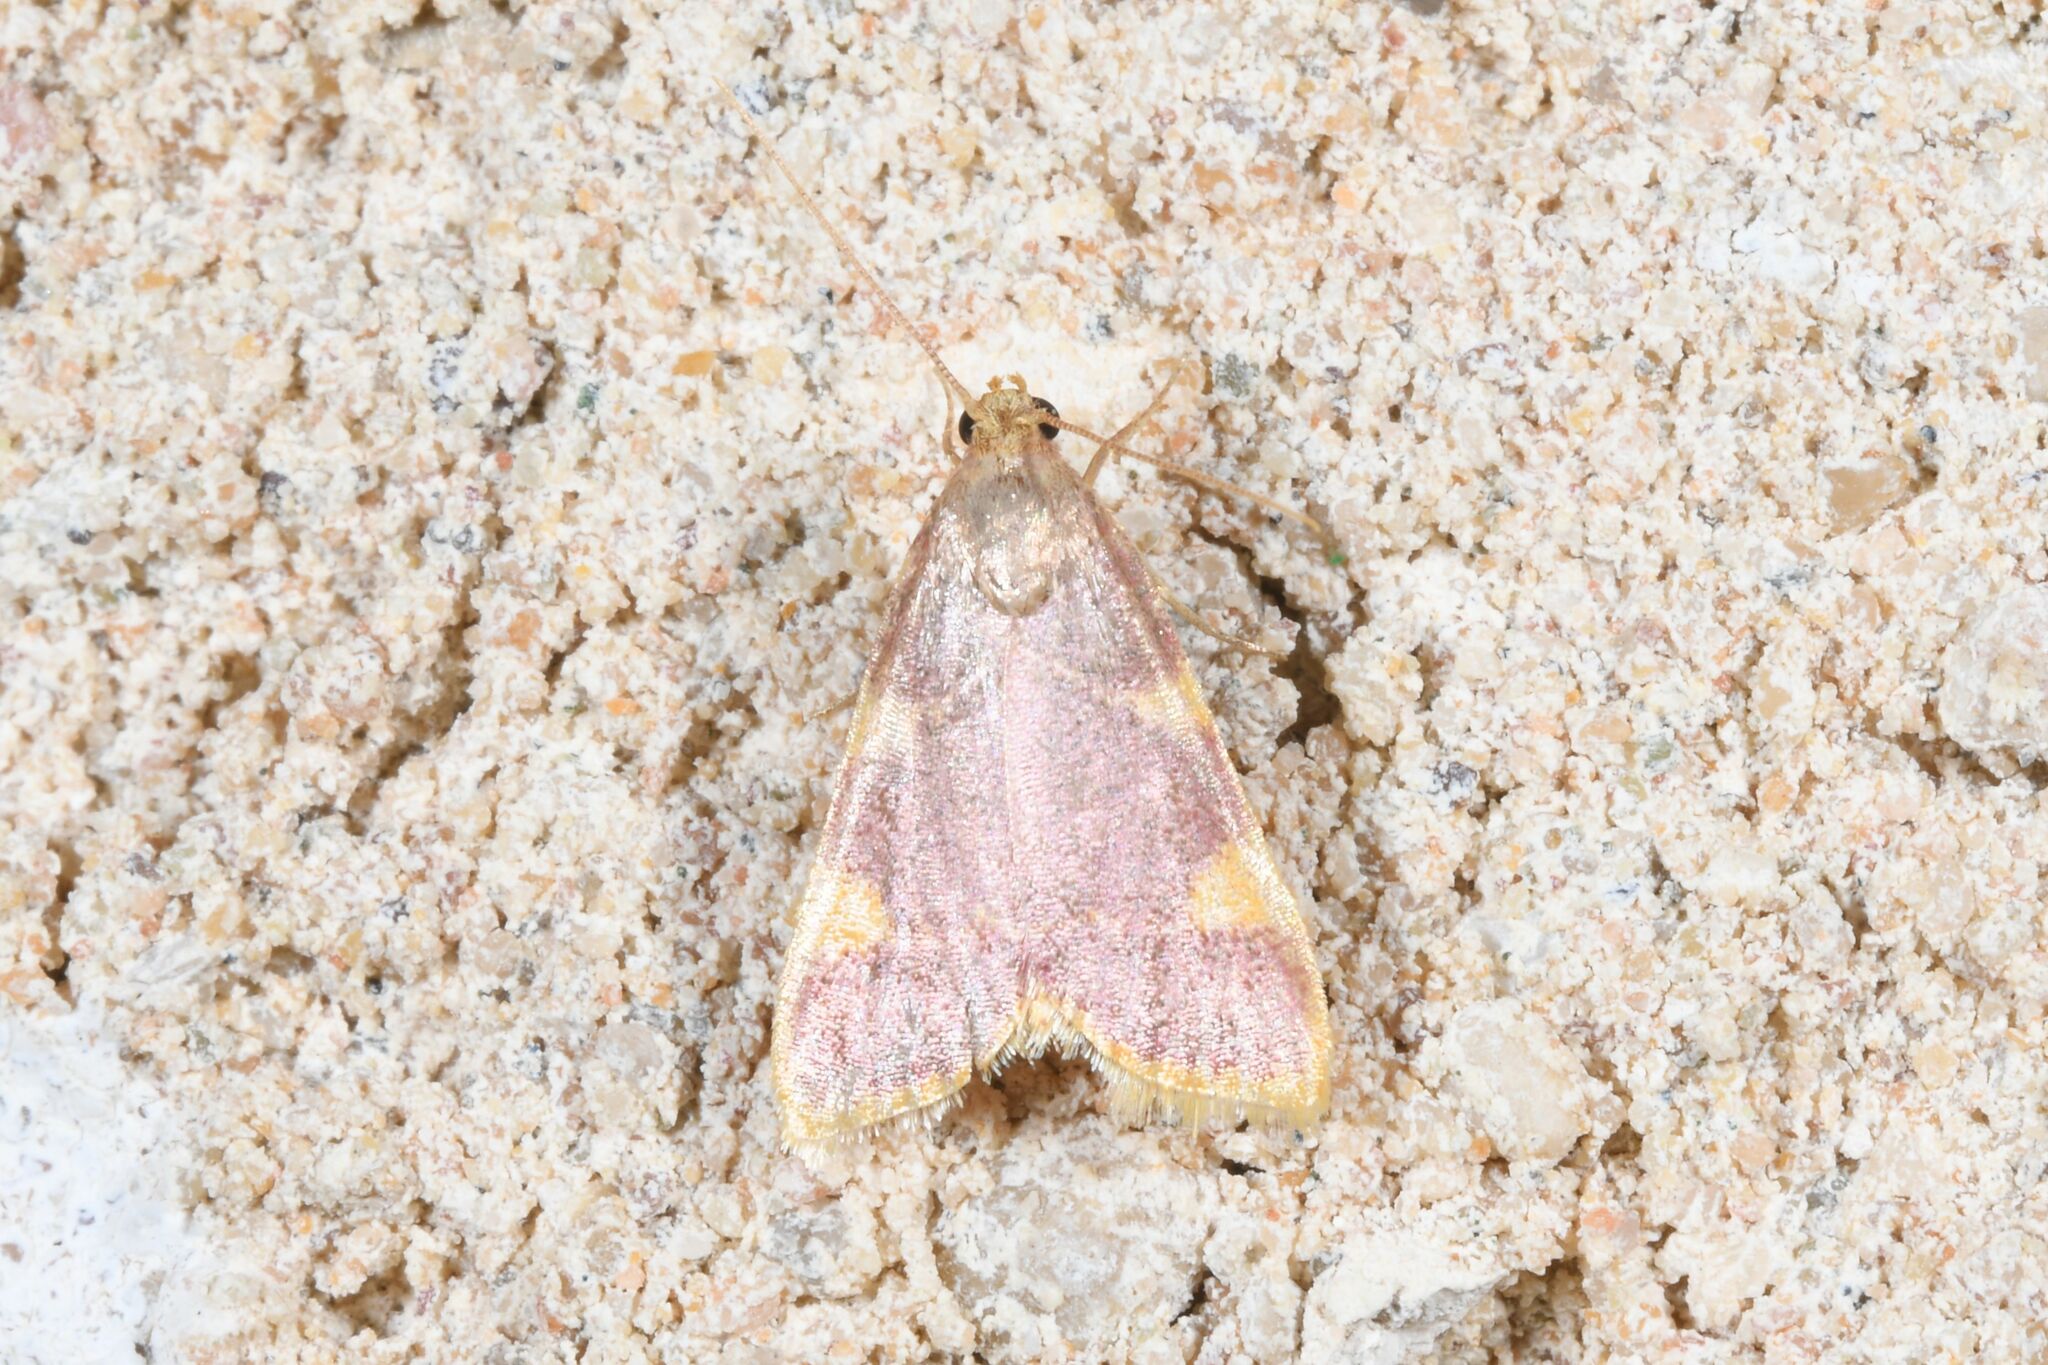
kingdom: Animalia
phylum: Arthropoda
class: Insecta
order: Lepidoptera
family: Pyralidae
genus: Hypsopygia
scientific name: Hypsopygia costalis
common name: Gold triangle
